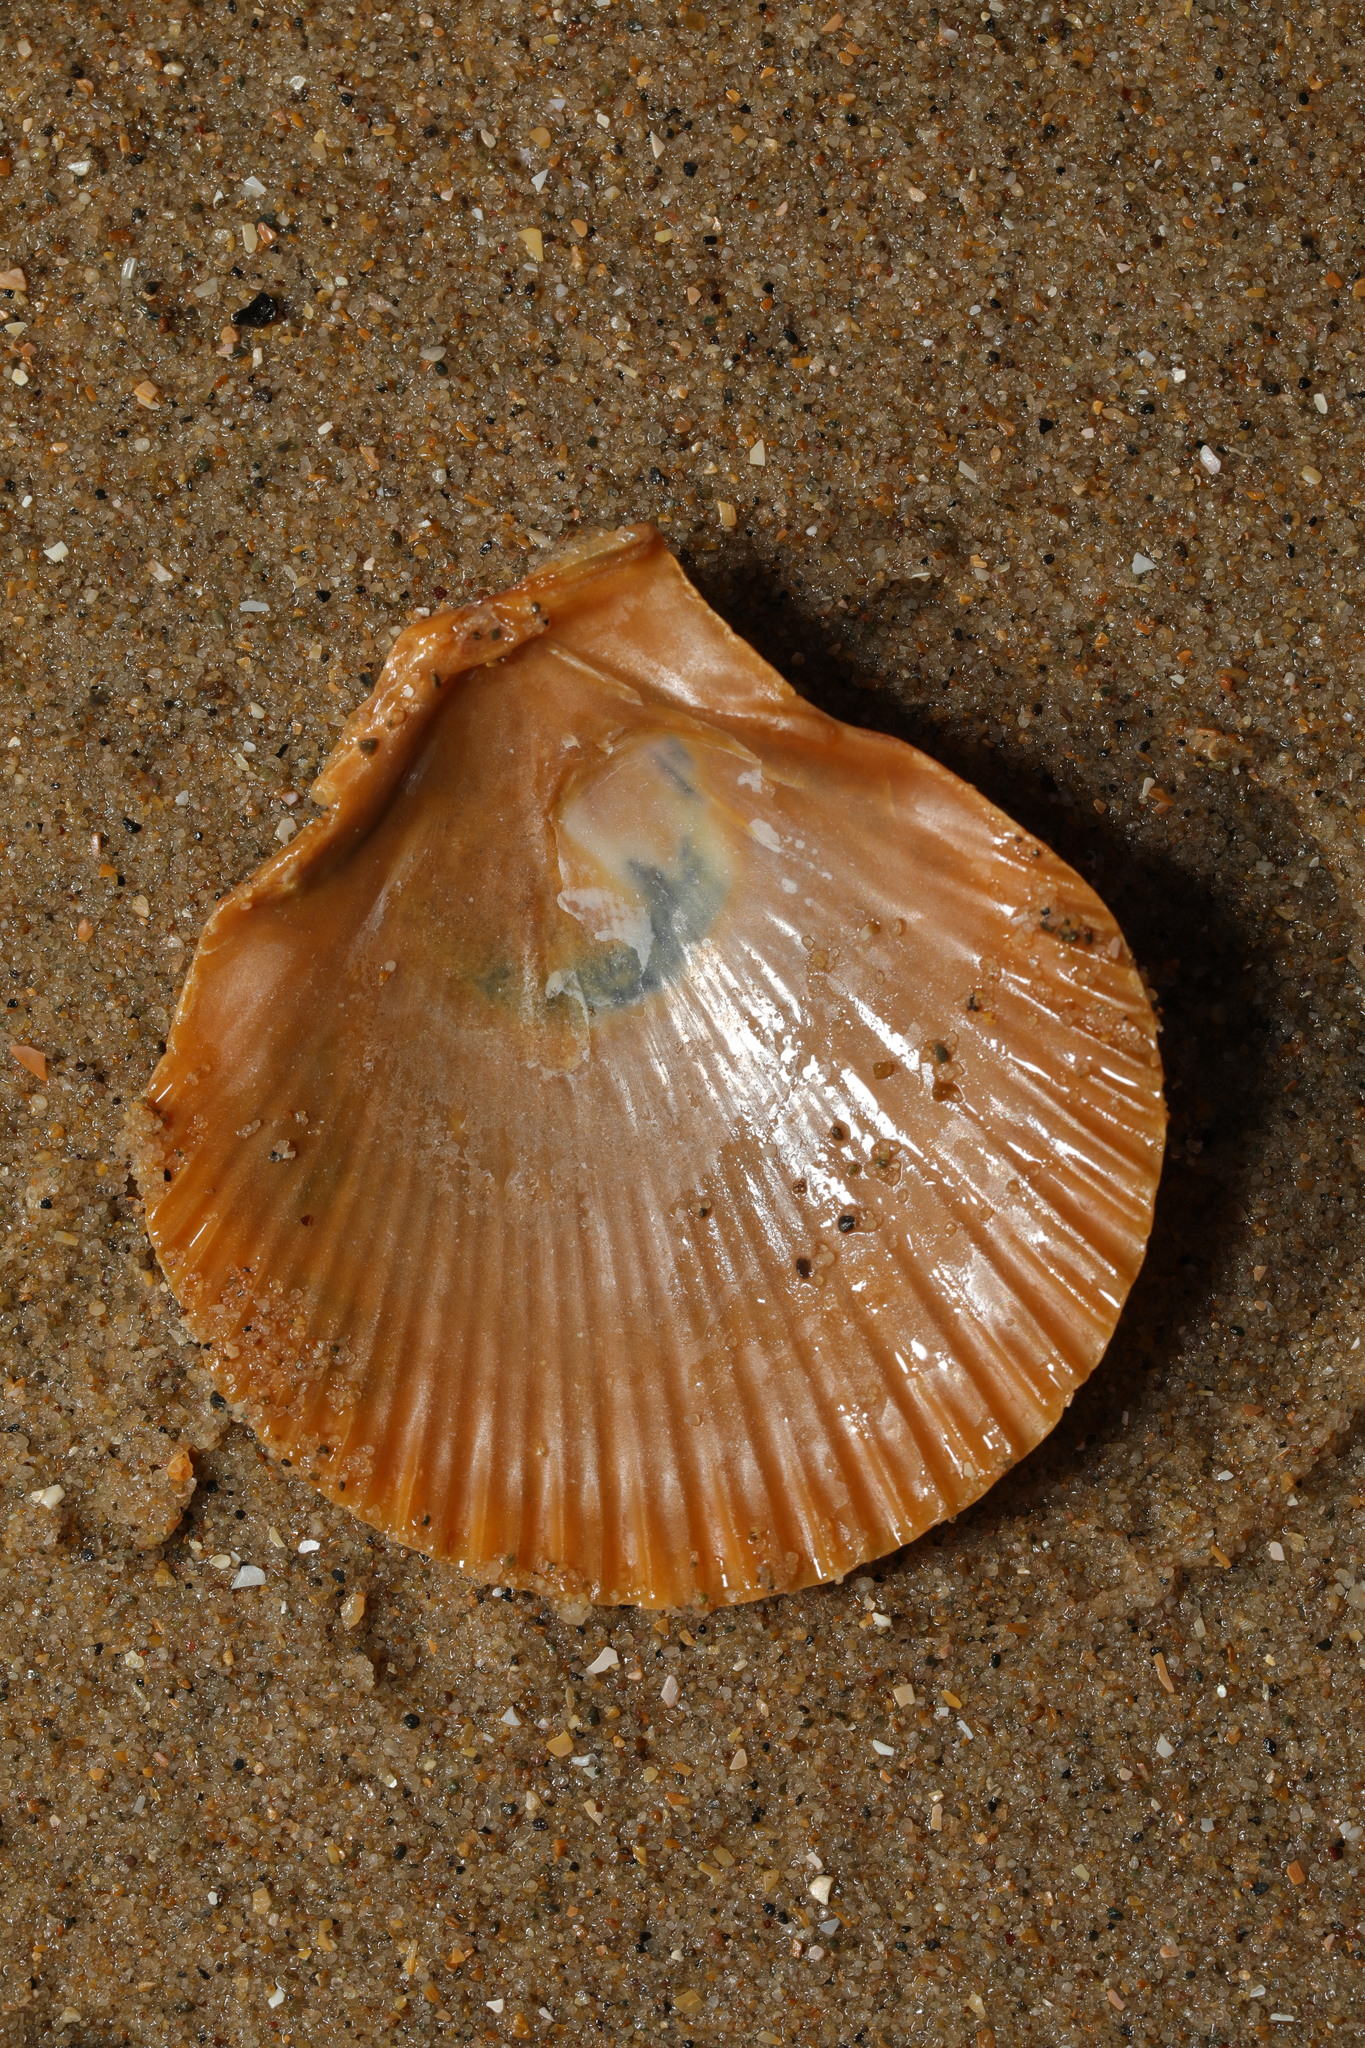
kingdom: Animalia
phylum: Mollusca
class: Bivalvia
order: Pectinida
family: Pectinidae
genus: Aequipecten
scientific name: Aequipecten opercularis
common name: Queen scallop
